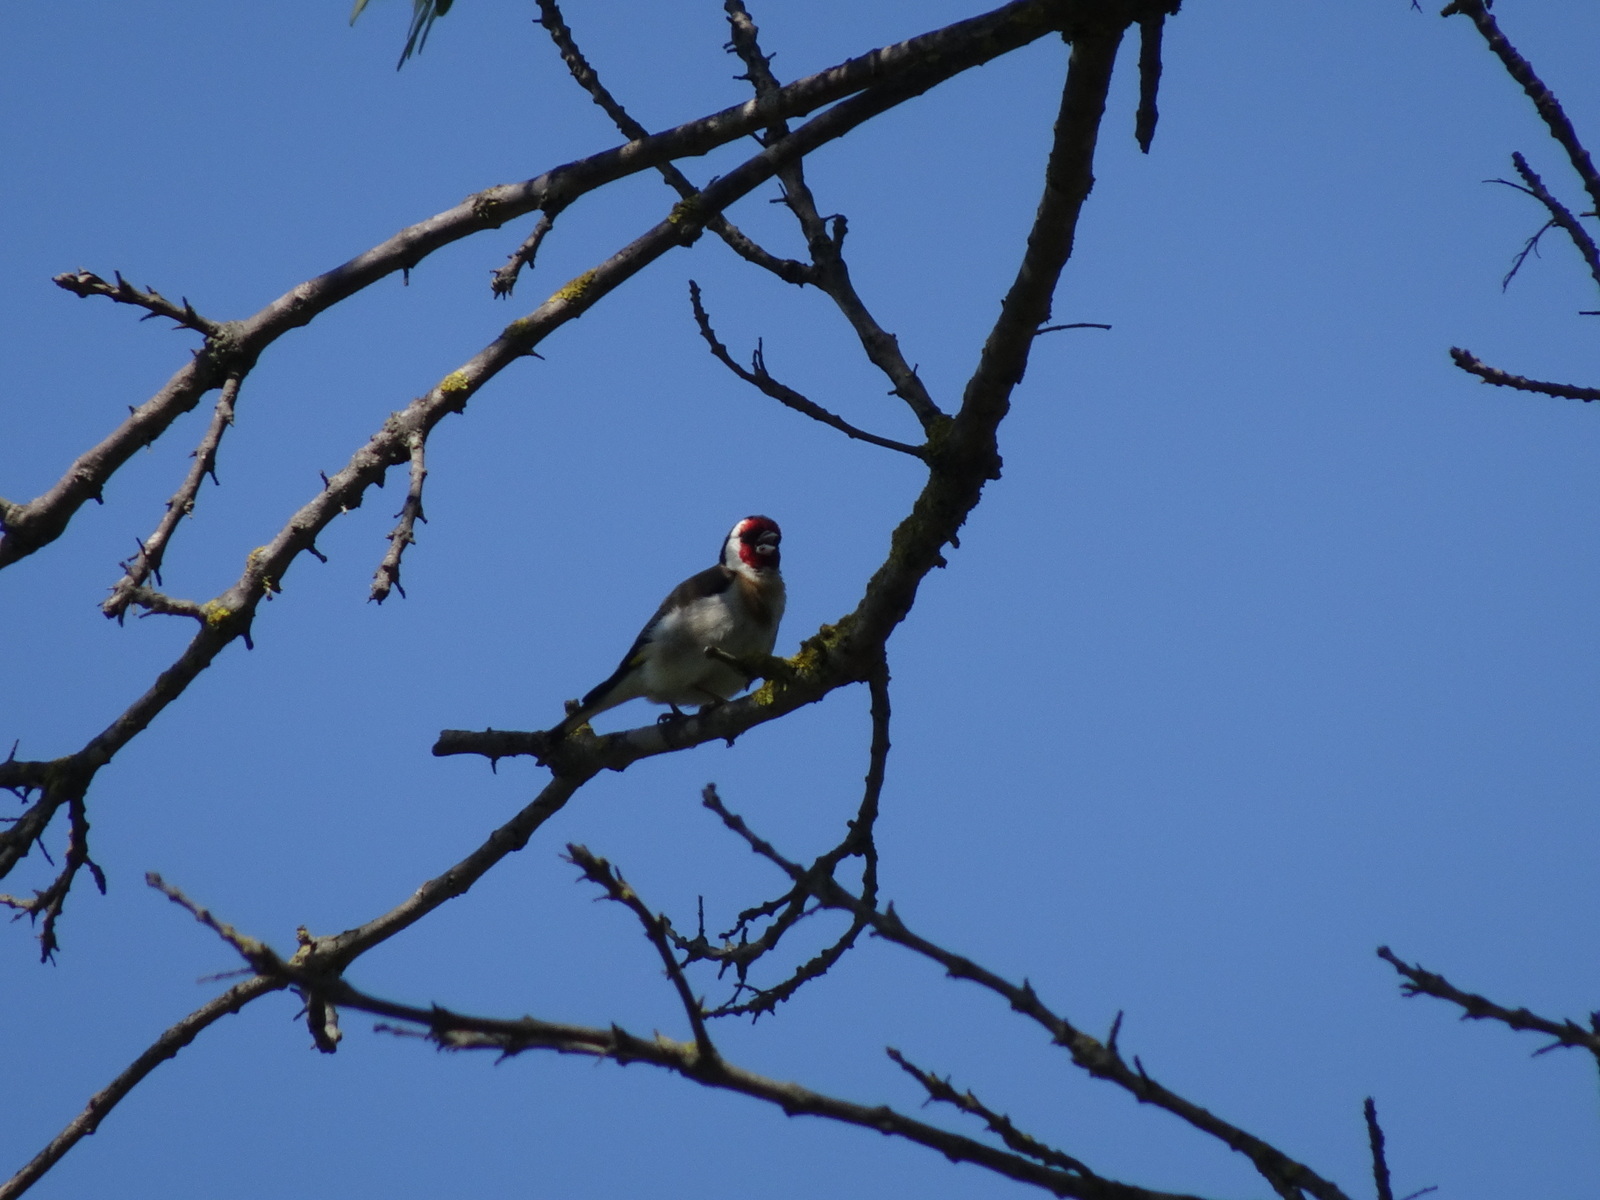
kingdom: Animalia
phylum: Chordata
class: Aves
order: Passeriformes
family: Fringillidae
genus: Carduelis
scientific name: Carduelis carduelis
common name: European goldfinch
